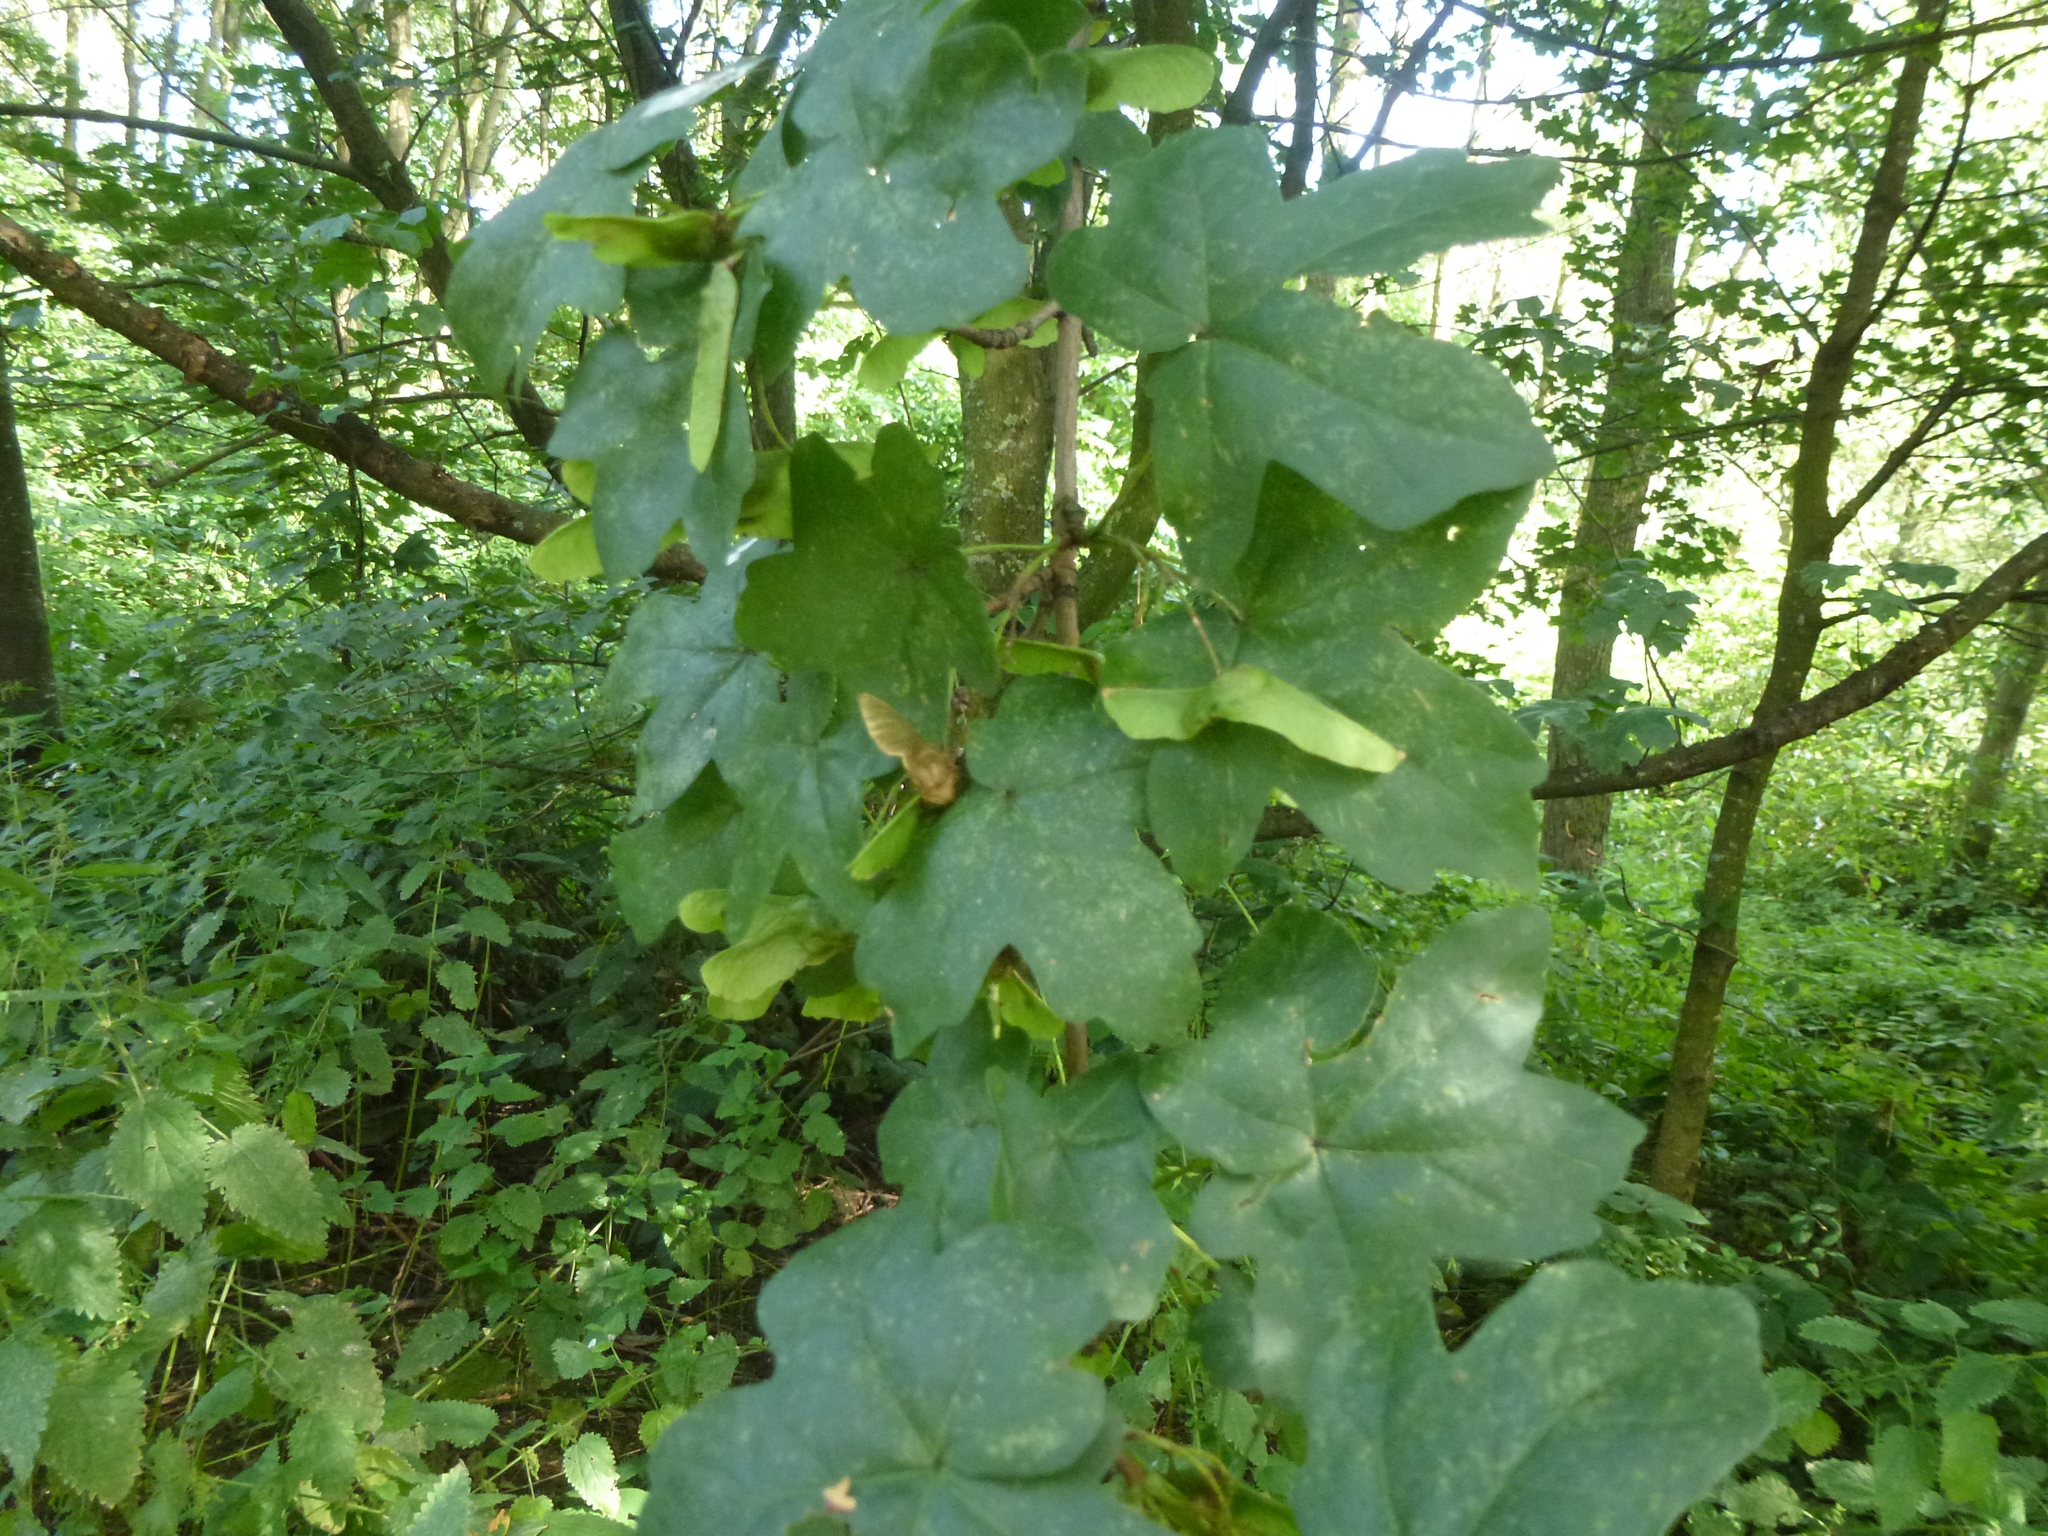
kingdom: Plantae
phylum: Tracheophyta
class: Magnoliopsida
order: Sapindales
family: Sapindaceae
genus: Acer
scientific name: Acer campestre
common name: Field maple
